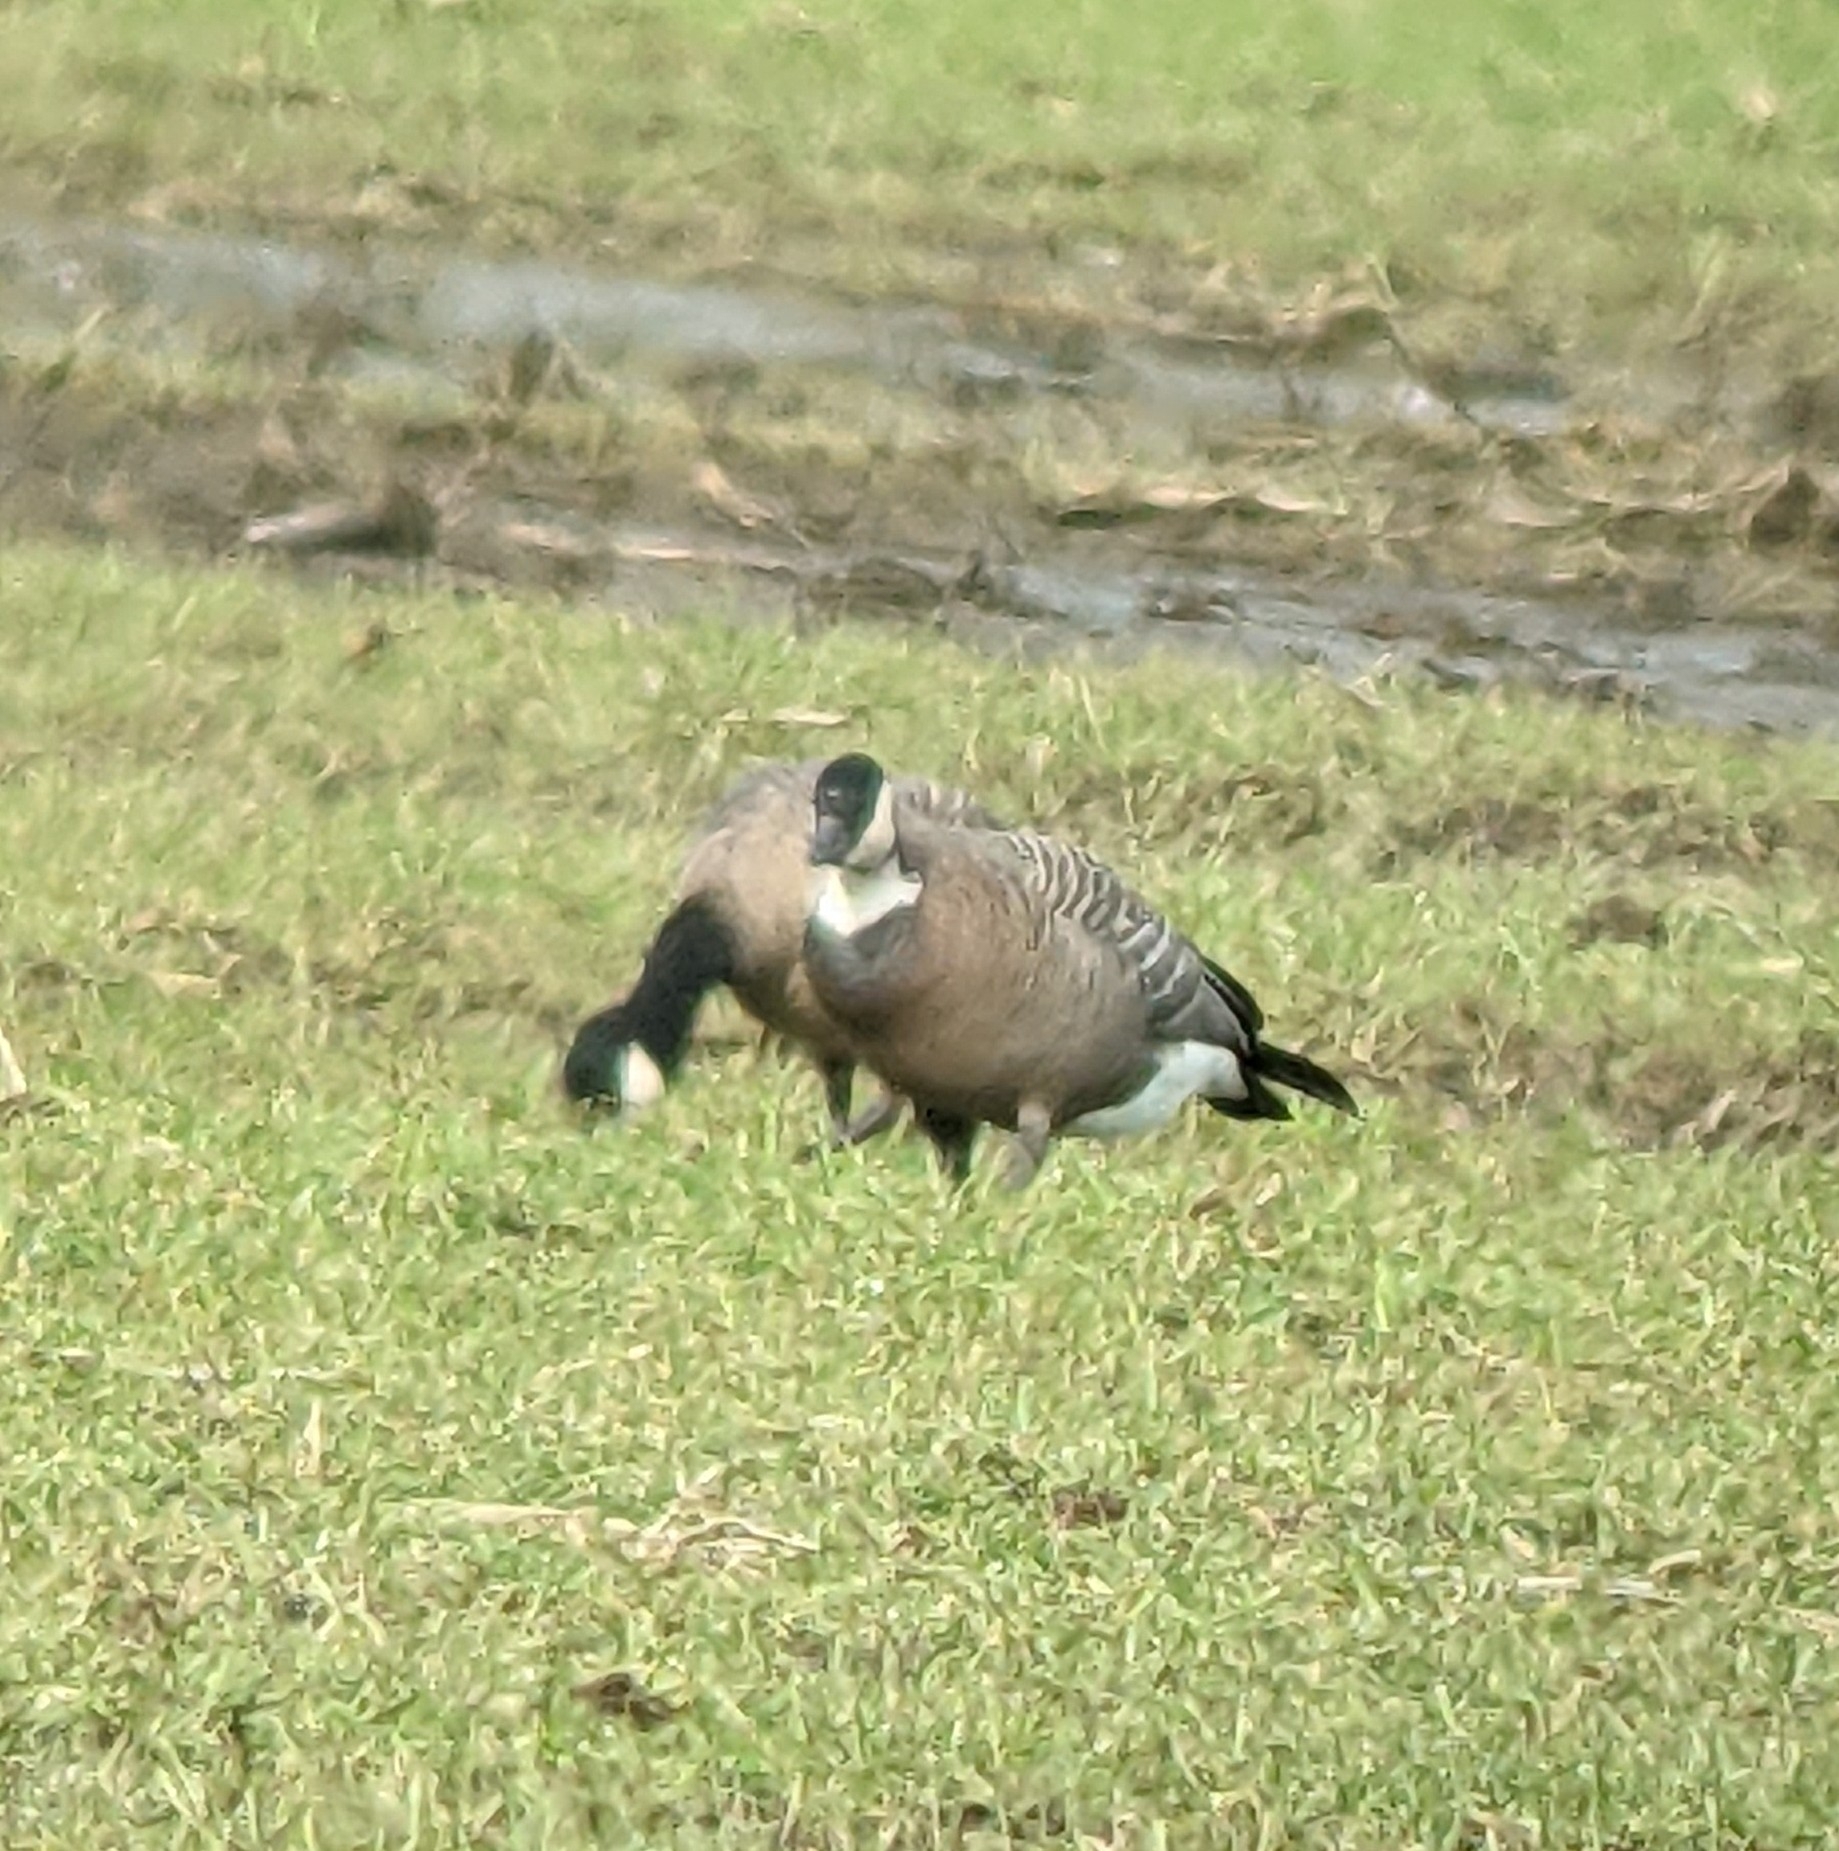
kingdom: Animalia
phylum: Chordata
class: Aves
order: Anseriformes
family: Anatidae
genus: Branta
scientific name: Branta hutchinsii
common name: Cackling goose
